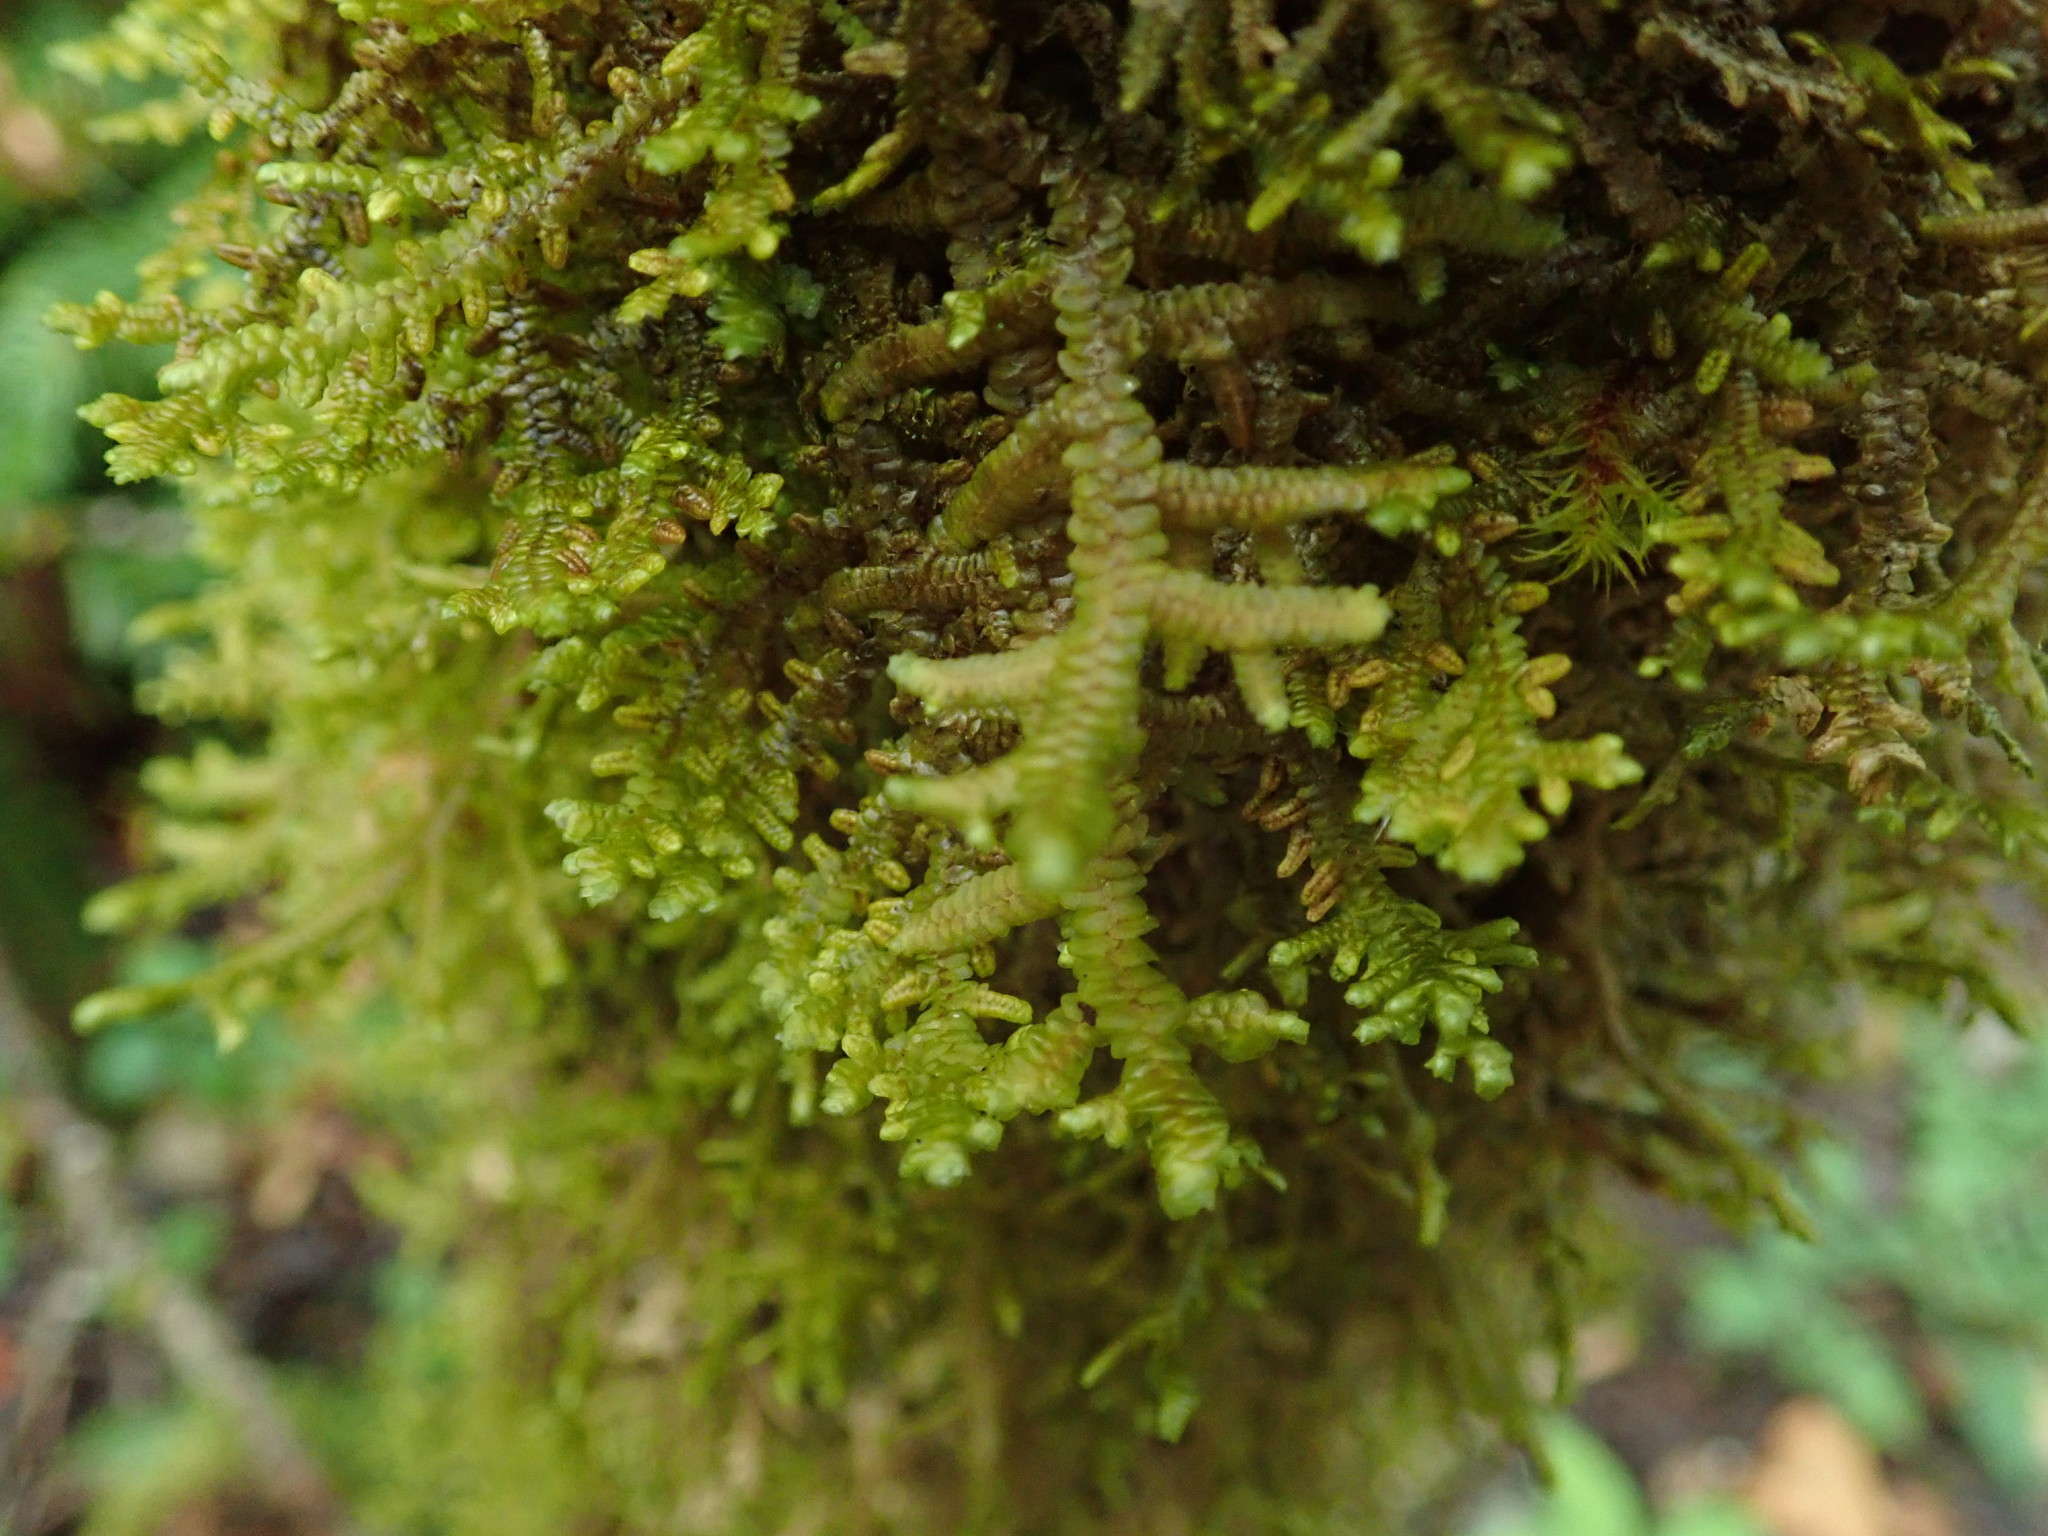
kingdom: Plantae
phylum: Marchantiophyta
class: Jungermanniopsida
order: Porellales
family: Porellaceae
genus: Porella
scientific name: Porella navicularis
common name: Tree ruffle liverwort
